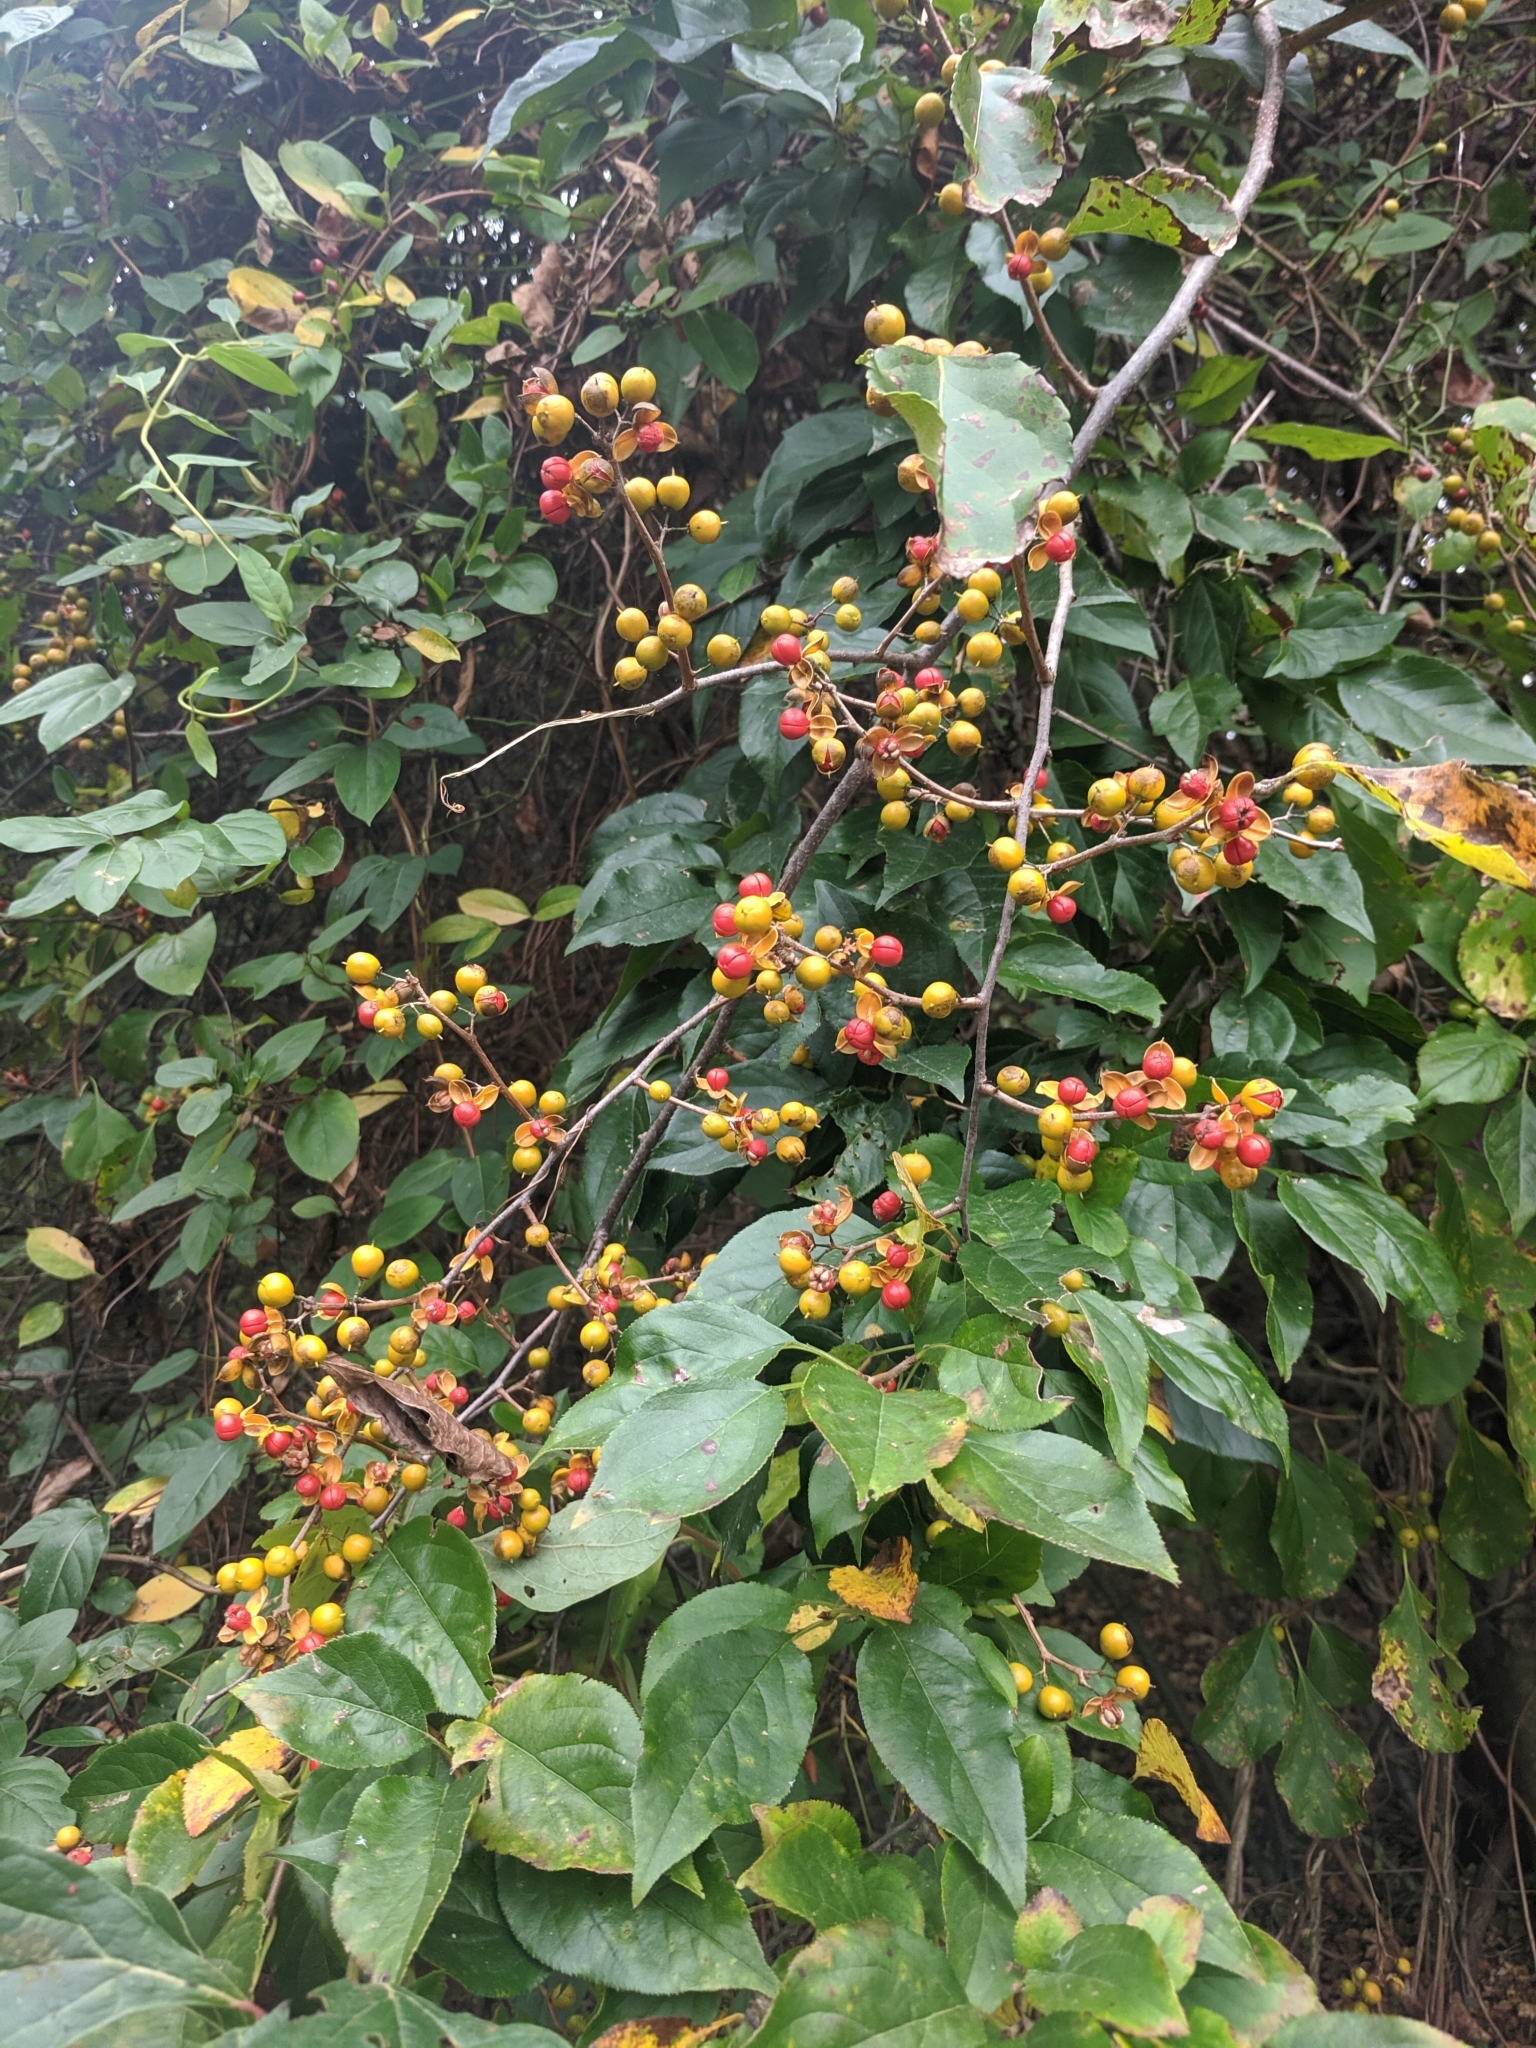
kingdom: Plantae
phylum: Tracheophyta
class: Magnoliopsida
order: Celastrales
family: Celastraceae
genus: Celastrus
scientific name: Celastrus orbiculatus
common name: Oriental bittersweet
